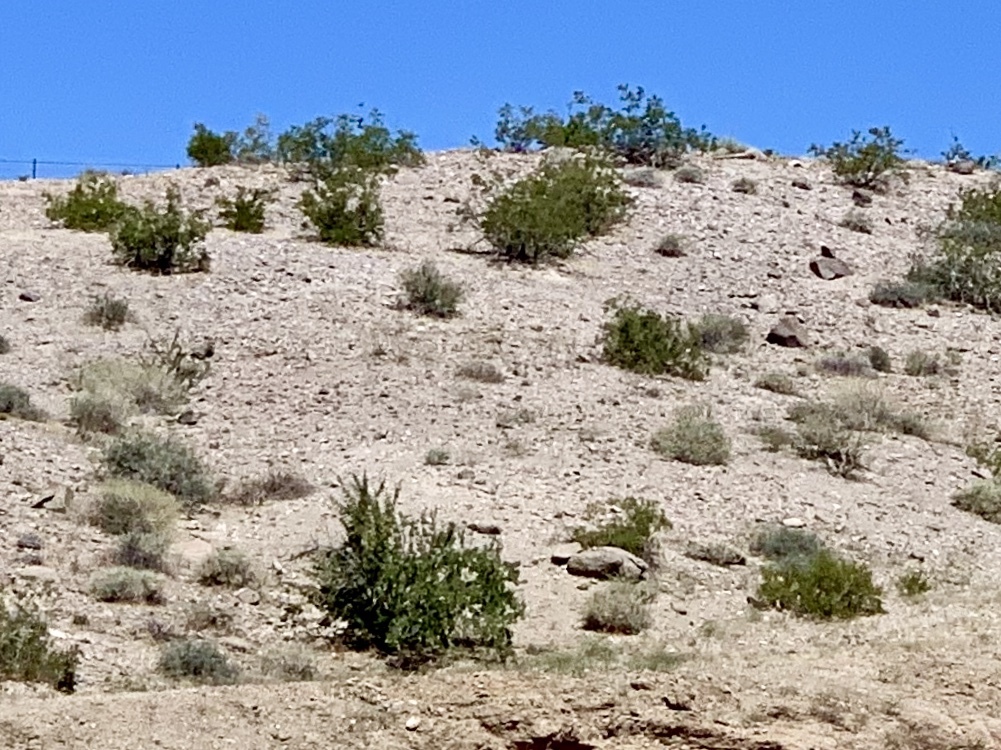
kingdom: Plantae
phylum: Tracheophyta
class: Magnoliopsida
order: Zygophyllales
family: Zygophyllaceae
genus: Larrea
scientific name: Larrea tridentata
